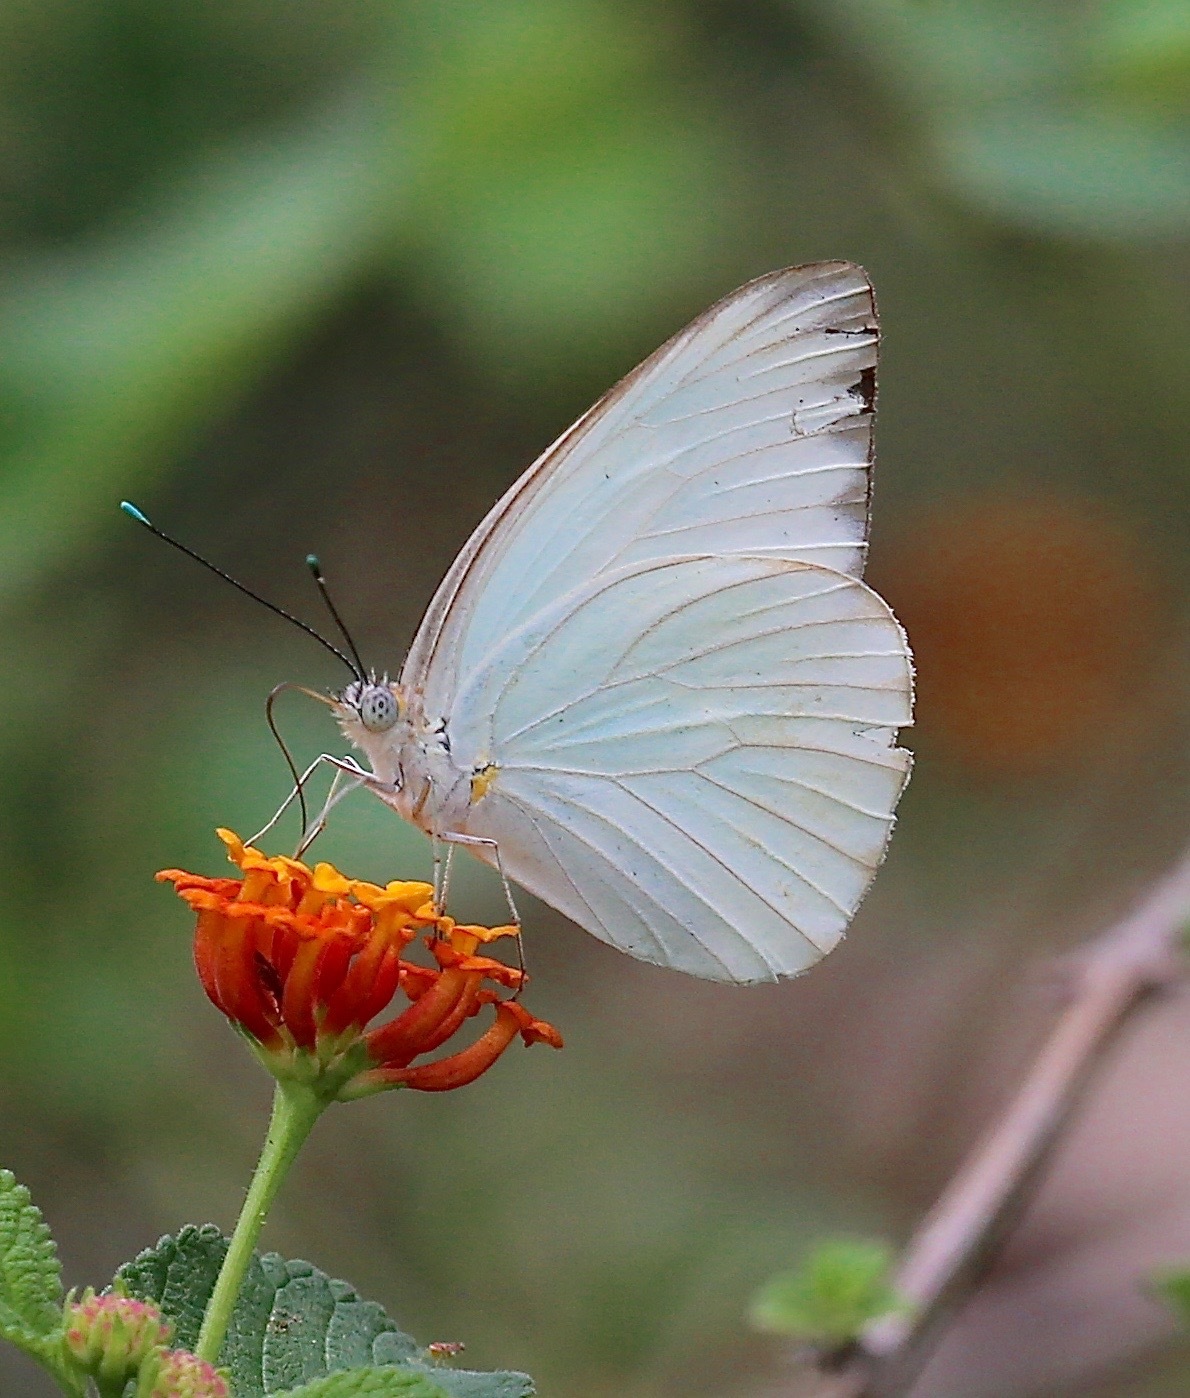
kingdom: Animalia
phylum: Arthropoda
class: Insecta
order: Lepidoptera
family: Pieridae
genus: Ascia
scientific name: Ascia monuste
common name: Great southern white
